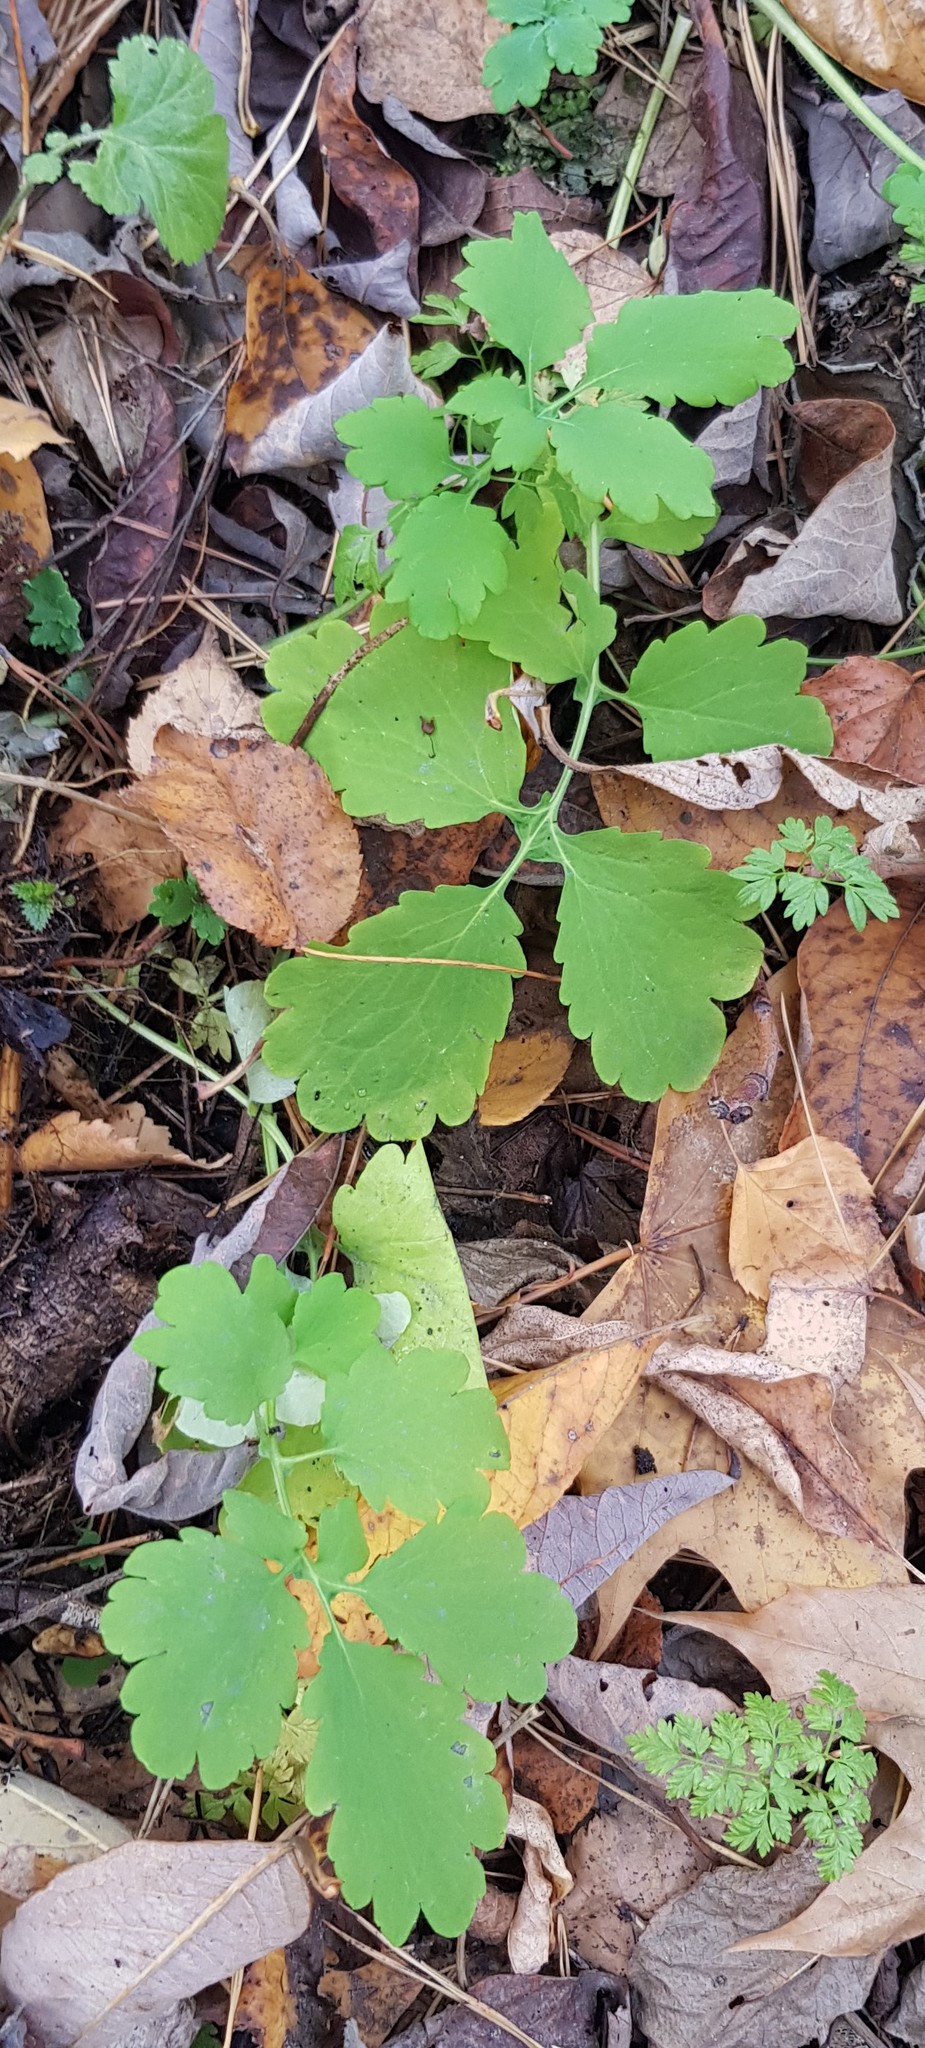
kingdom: Plantae
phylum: Tracheophyta
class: Magnoliopsida
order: Ranunculales
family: Papaveraceae
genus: Chelidonium
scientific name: Chelidonium majus
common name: Greater celandine
